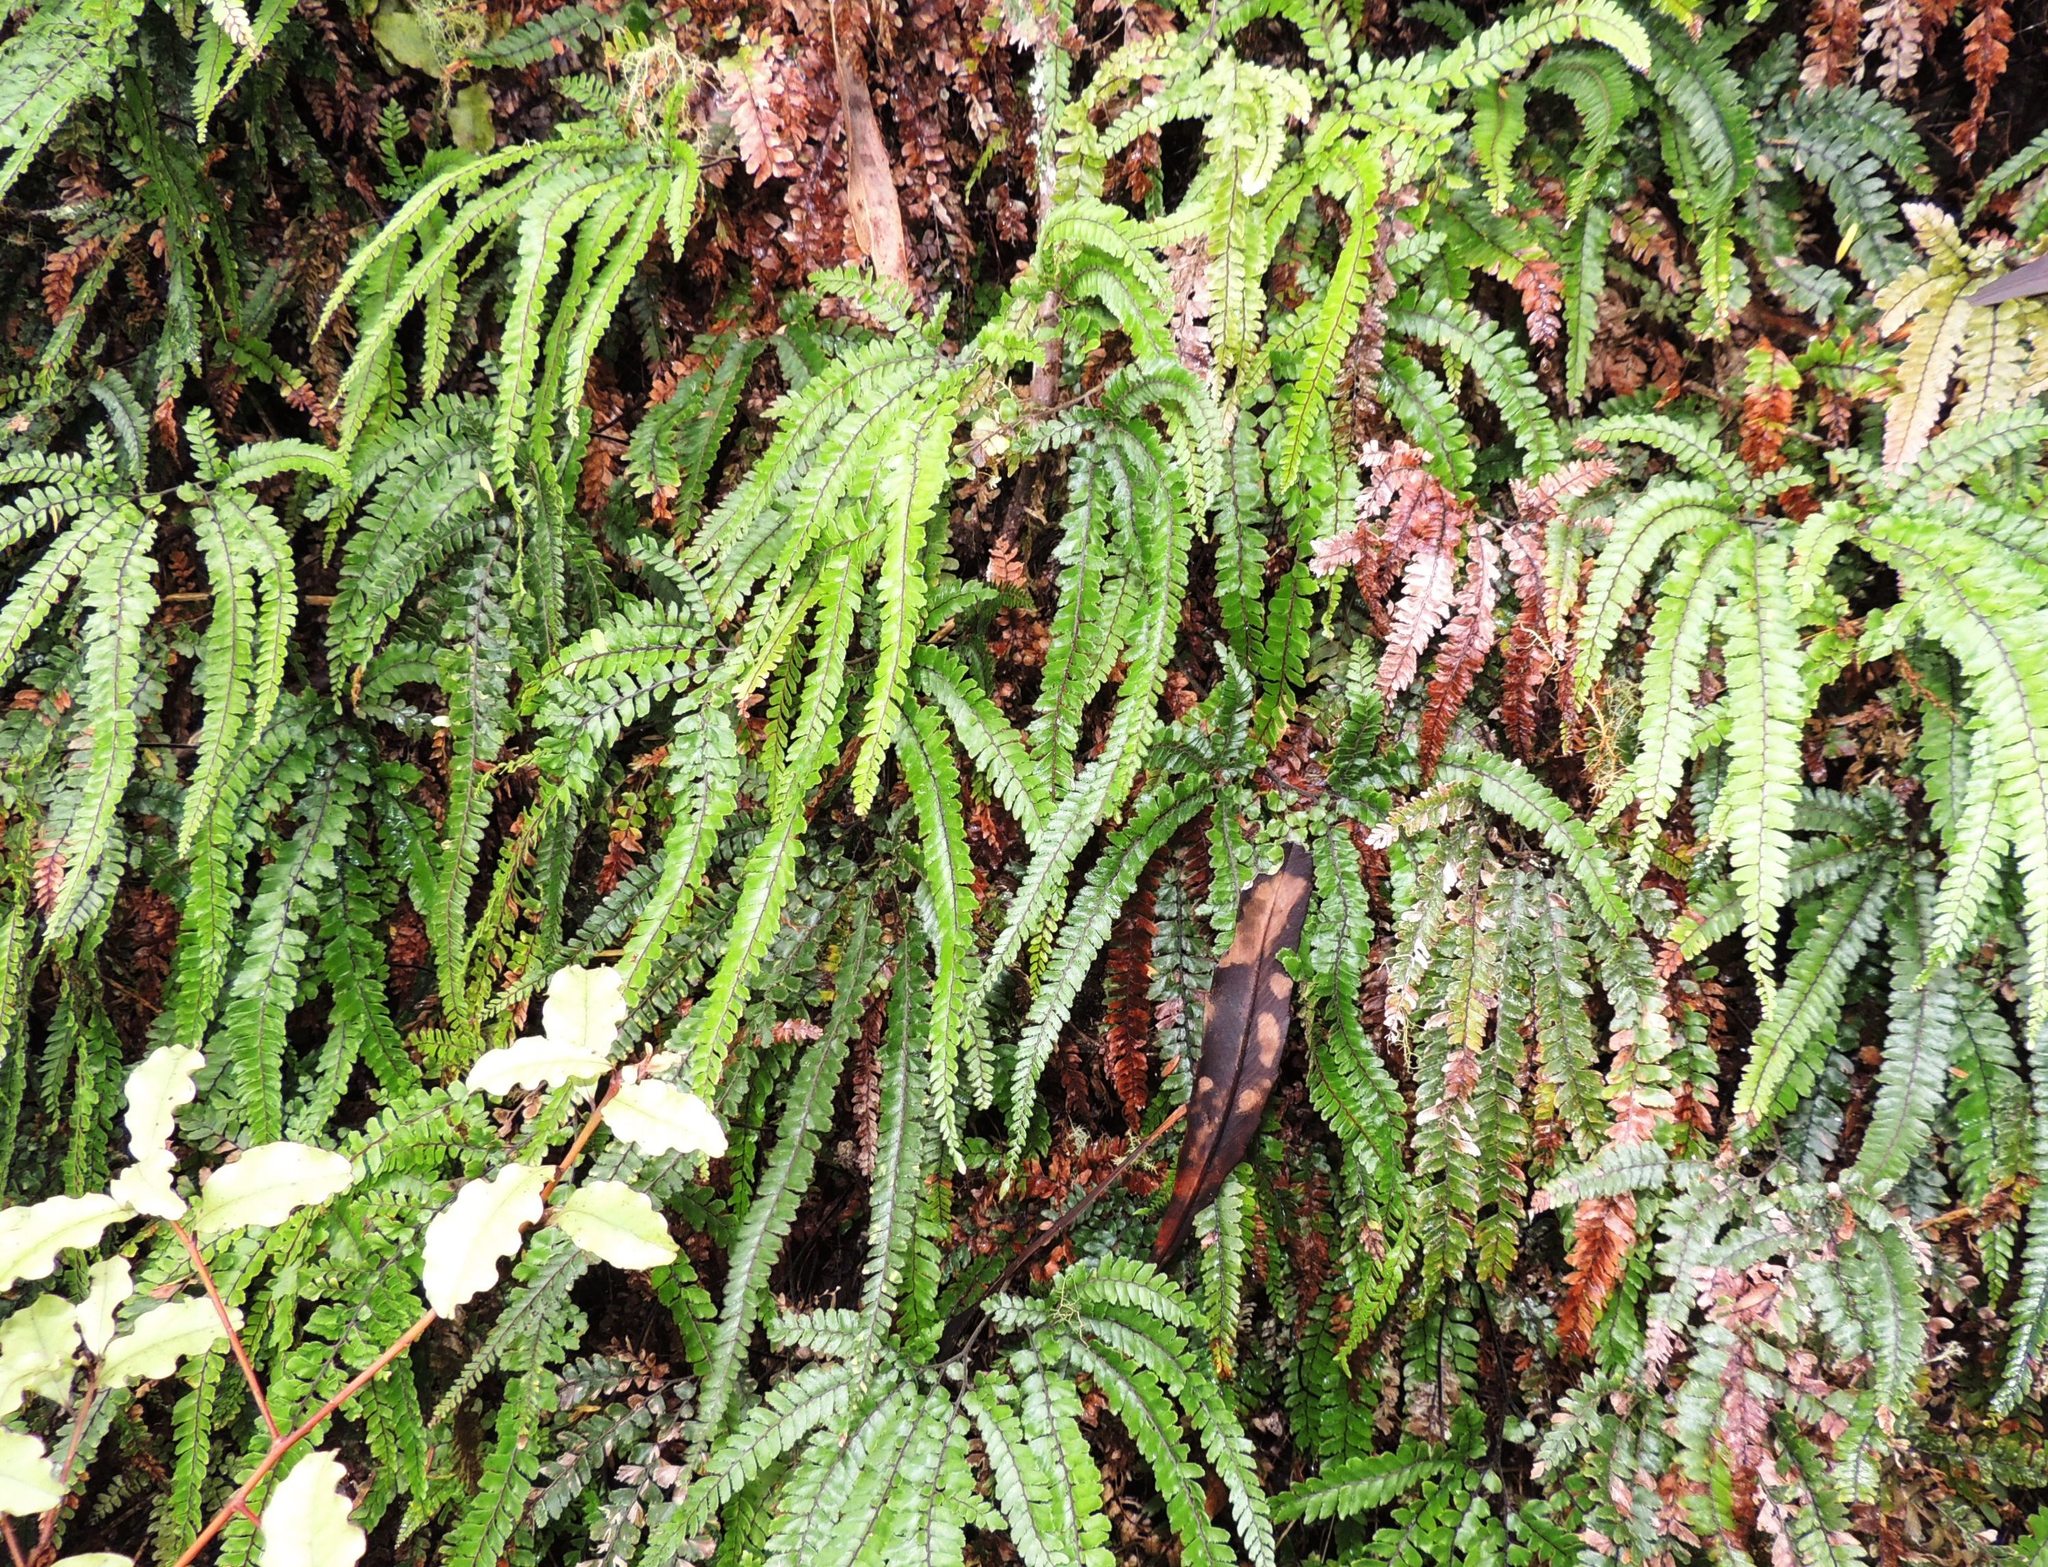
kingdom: Plantae
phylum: Tracheophyta
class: Polypodiopsida
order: Polypodiales
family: Pteridaceae
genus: Adiantum
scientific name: Adiantum hispidulum
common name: Rough maidenhair
